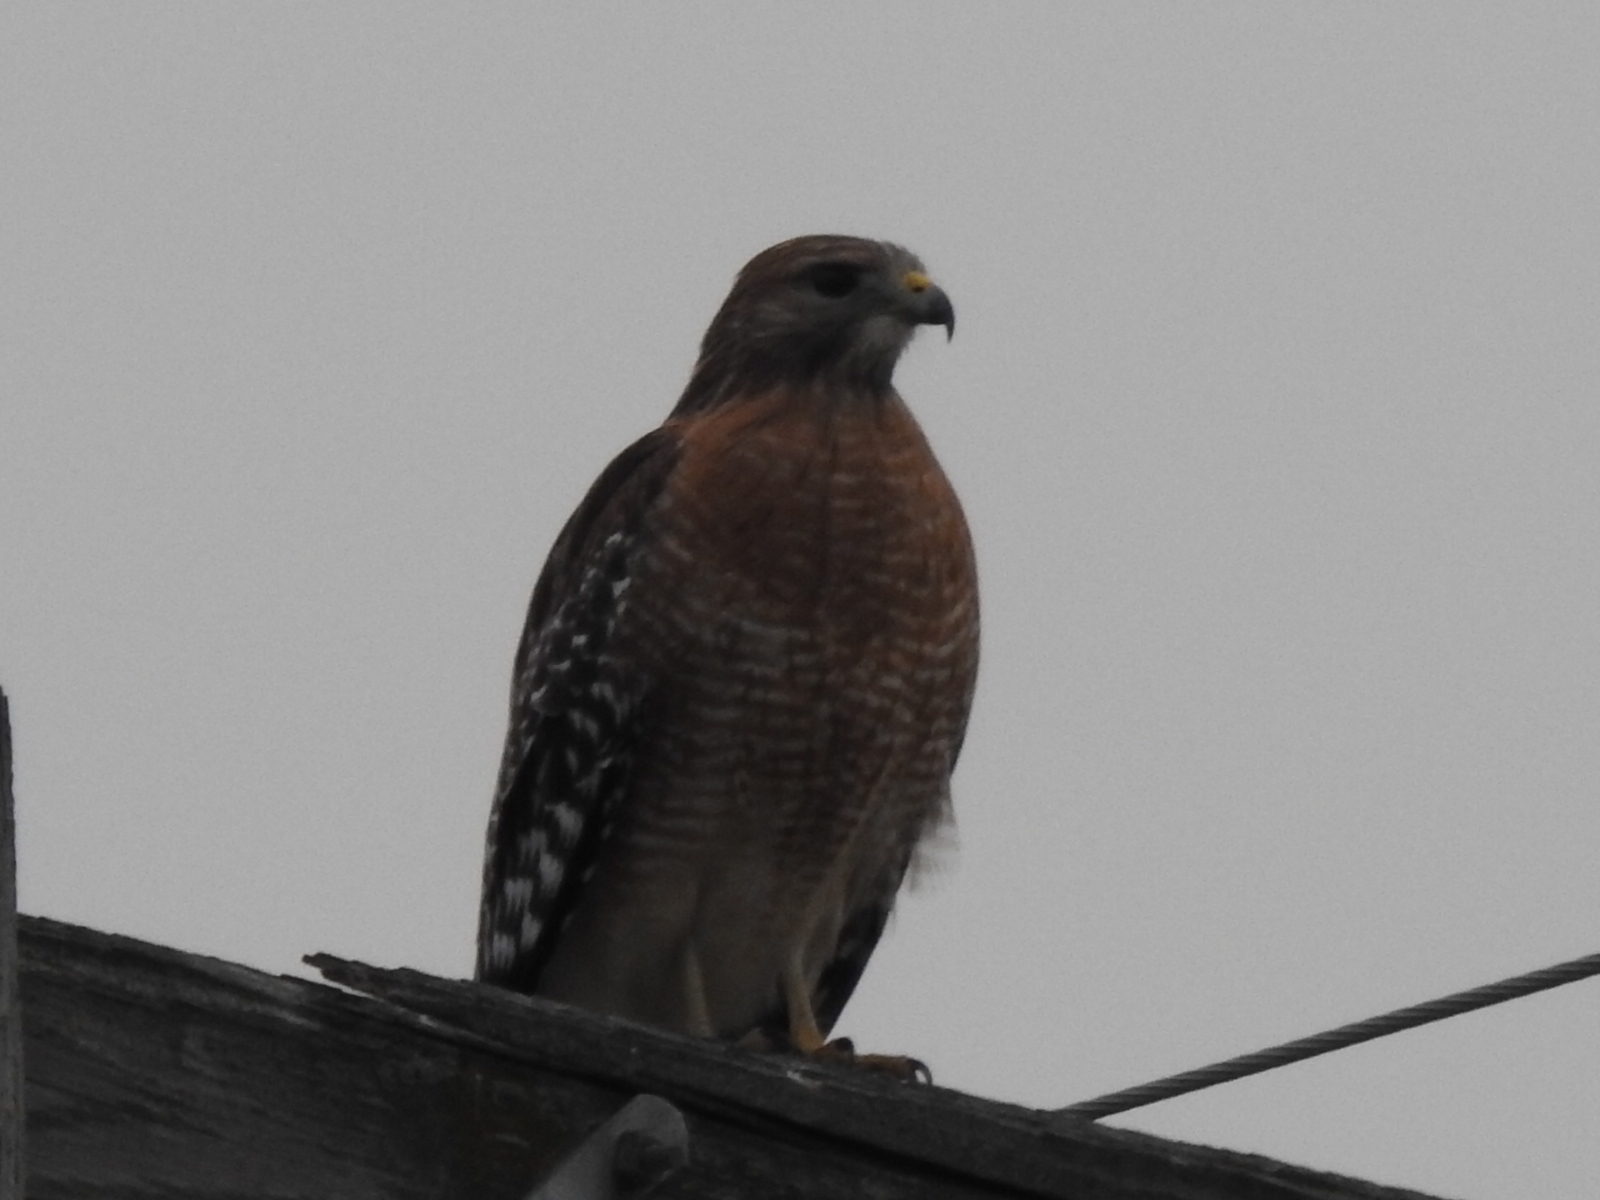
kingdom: Animalia
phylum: Chordata
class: Aves
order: Accipitriformes
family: Accipitridae
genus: Buteo
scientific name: Buteo lineatus
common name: Red-shouldered hawk
